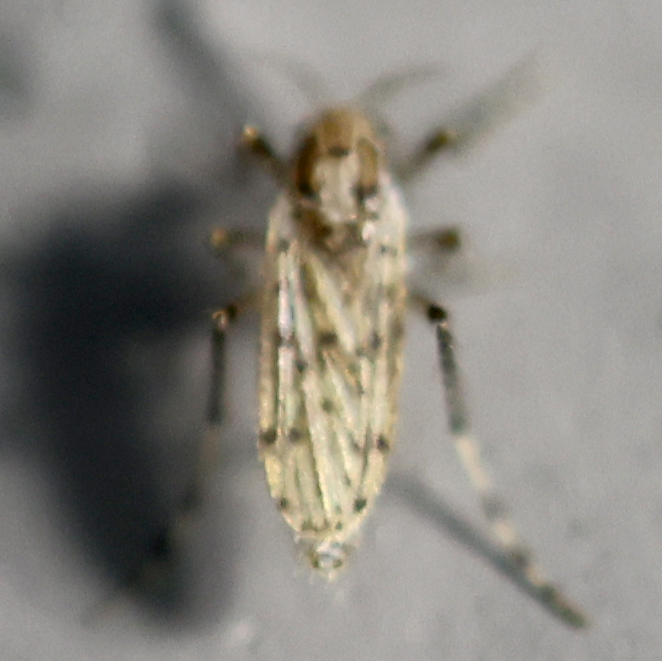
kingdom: Animalia
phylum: Arthropoda
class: Insecta
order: Diptera
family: Chaoboridae
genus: Chaoborus
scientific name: Chaoborus punctipennis
